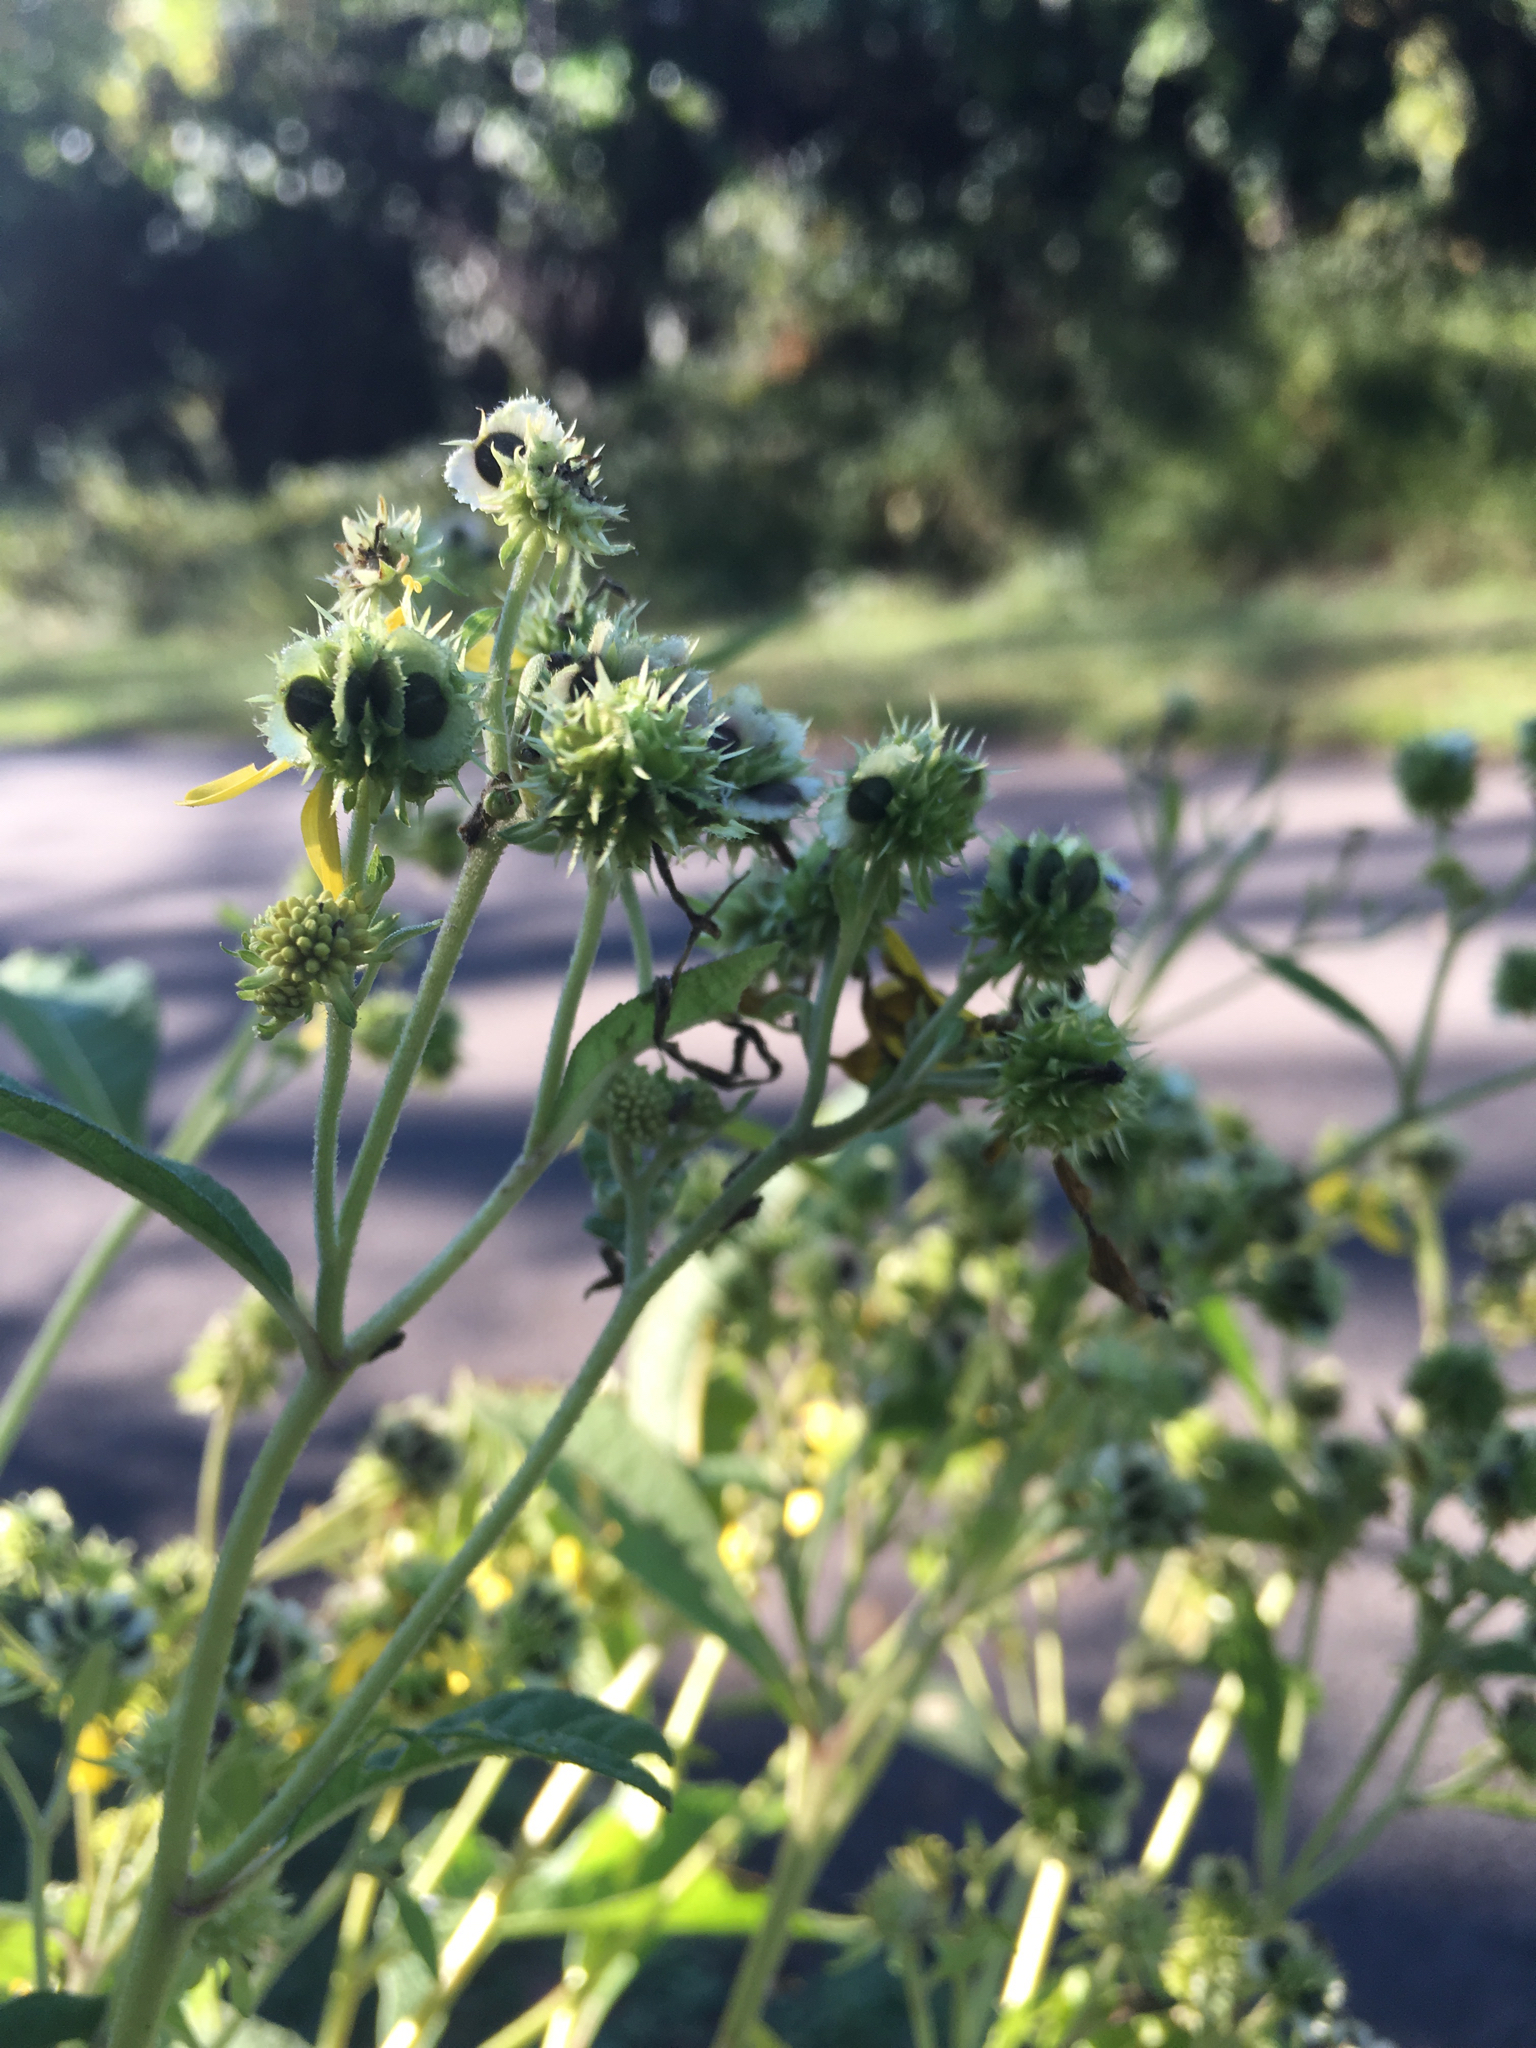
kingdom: Plantae
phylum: Tracheophyta
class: Magnoliopsida
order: Asterales
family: Asteraceae
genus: Verbesina
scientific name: Verbesina alternifolia
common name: Wingstem
